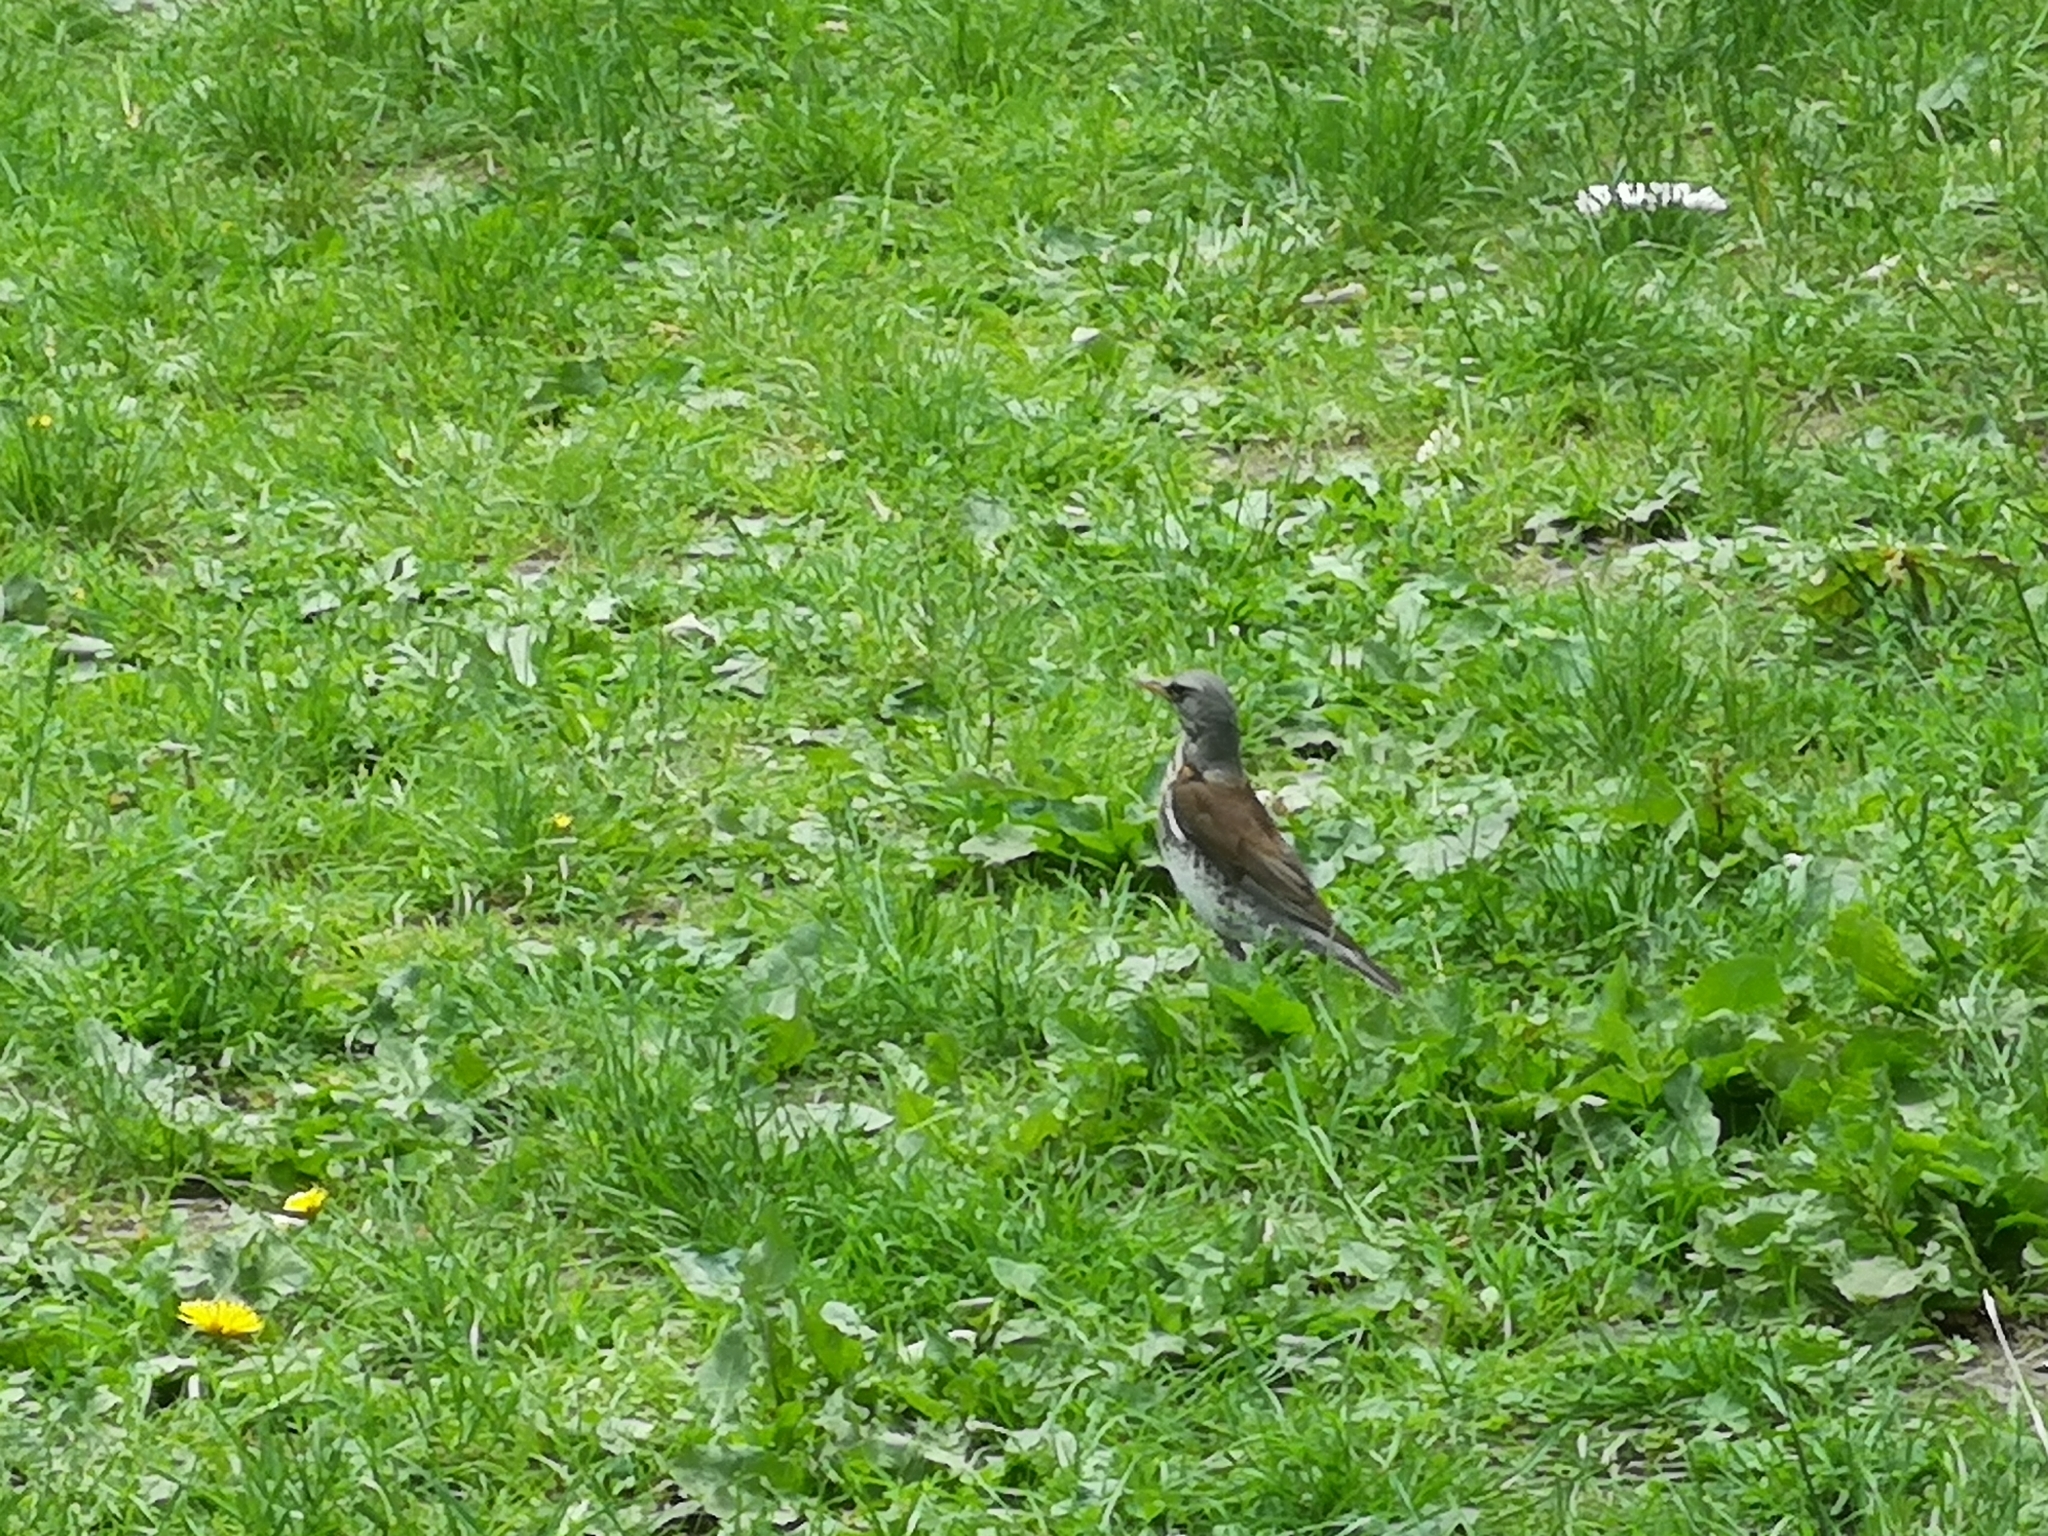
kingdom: Animalia
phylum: Chordata
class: Aves
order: Passeriformes
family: Turdidae
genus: Turdus
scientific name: Turdus pilaris
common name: Fieldfare
